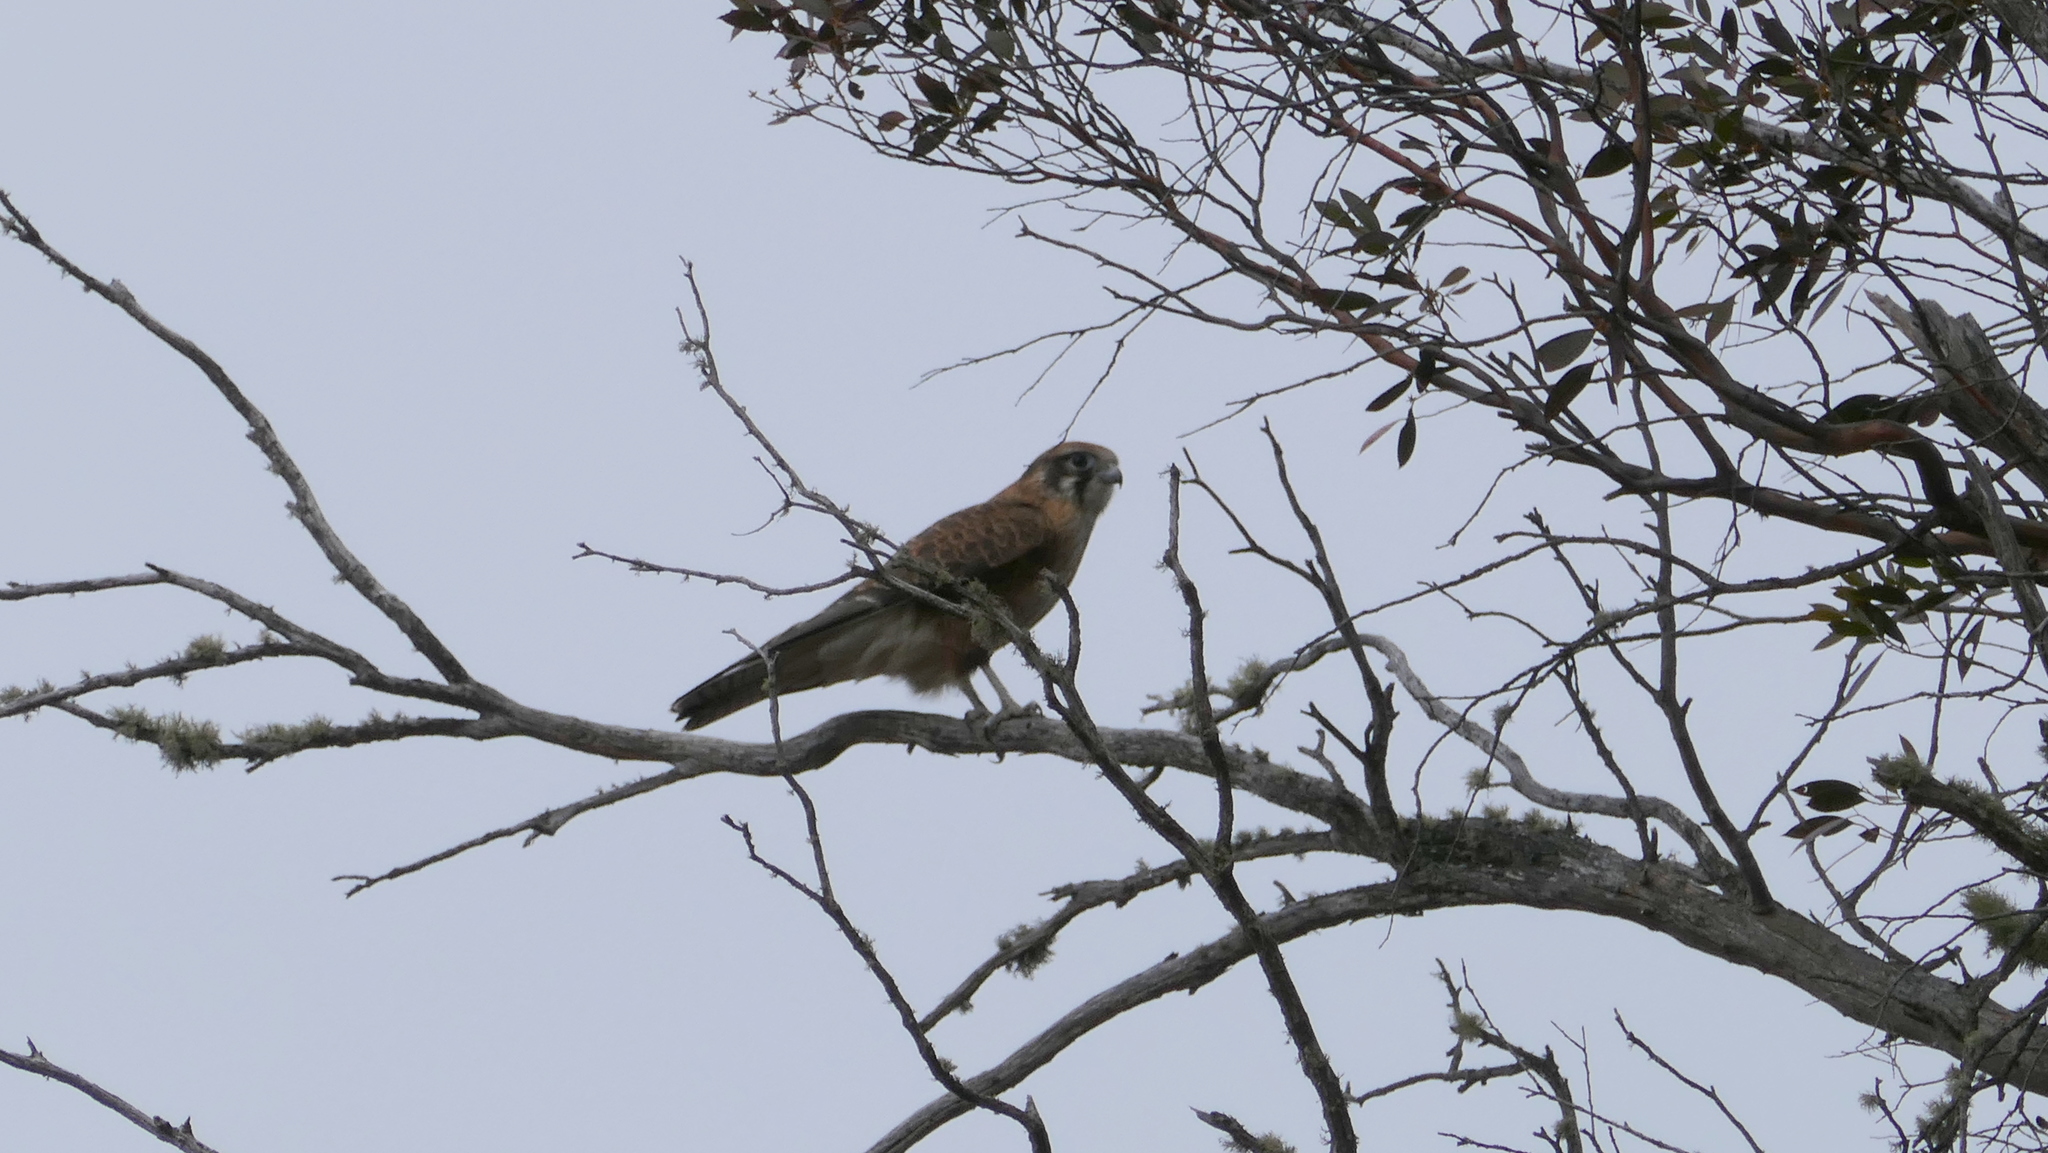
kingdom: Animalia
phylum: Chordata
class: Aves
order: Falconiformes
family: Falconidae
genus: Falco
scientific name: Falco berigora
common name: Brown falcon
